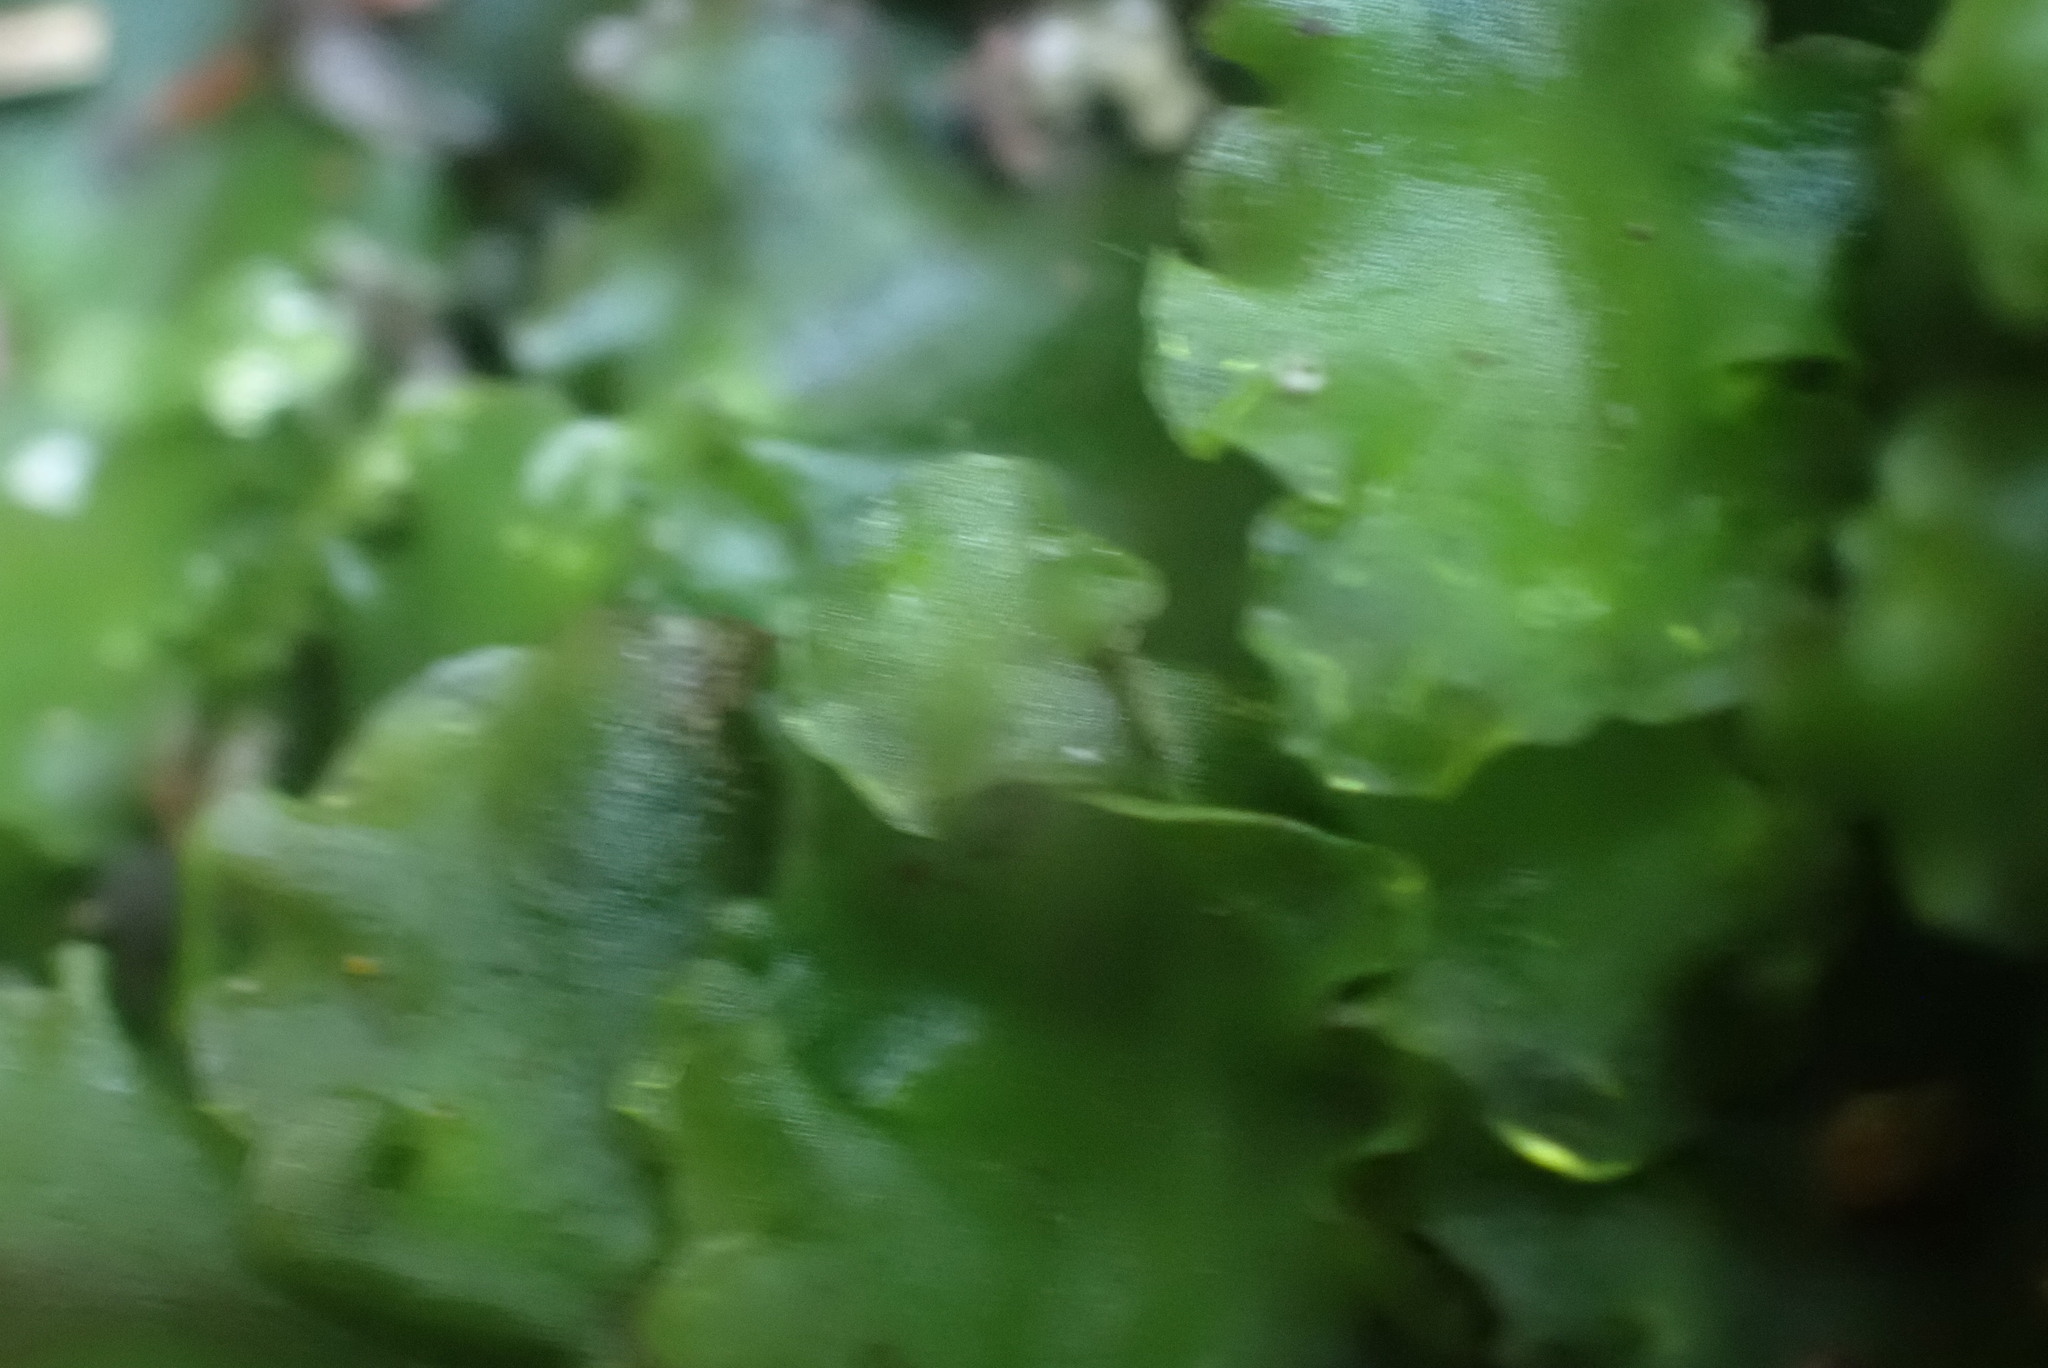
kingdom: Plantae
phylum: Marchantiophyta
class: Jungermanniopsida
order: Pelliales
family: Pelliaceae
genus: Pellia
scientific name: Pellia neesiana
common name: Nees  pellia
